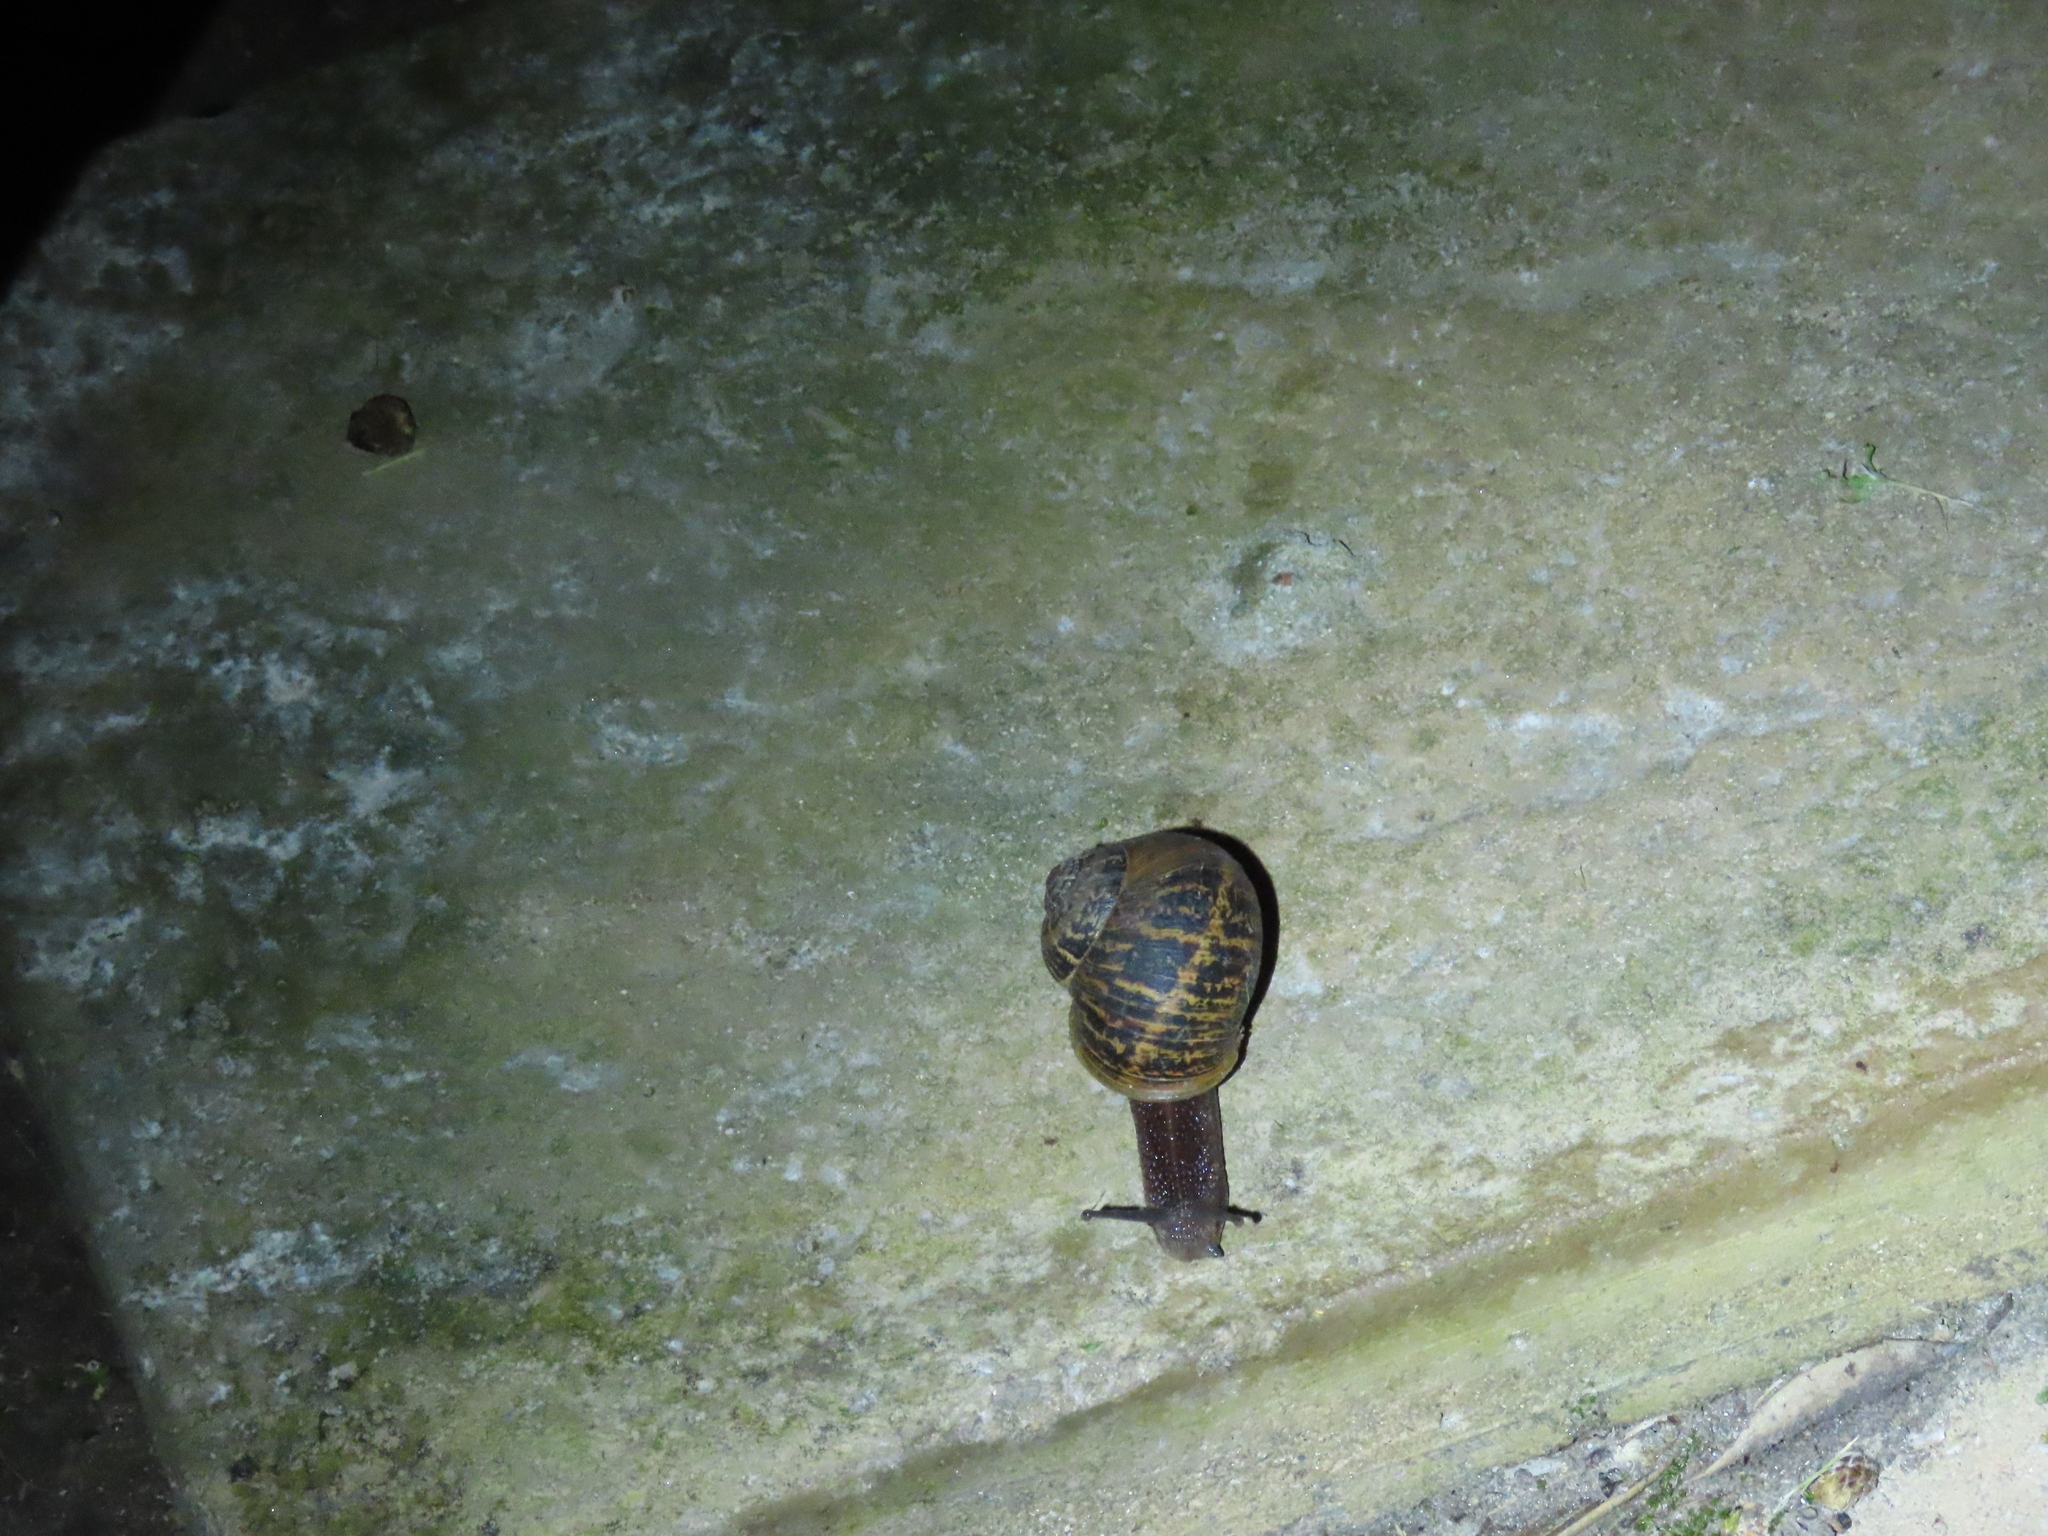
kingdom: Animalia
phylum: Mollusca
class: Gastropoda
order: Stylommatophora
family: Helicidae
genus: Cornu
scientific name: Cornu aspersum
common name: Brown garden snail
